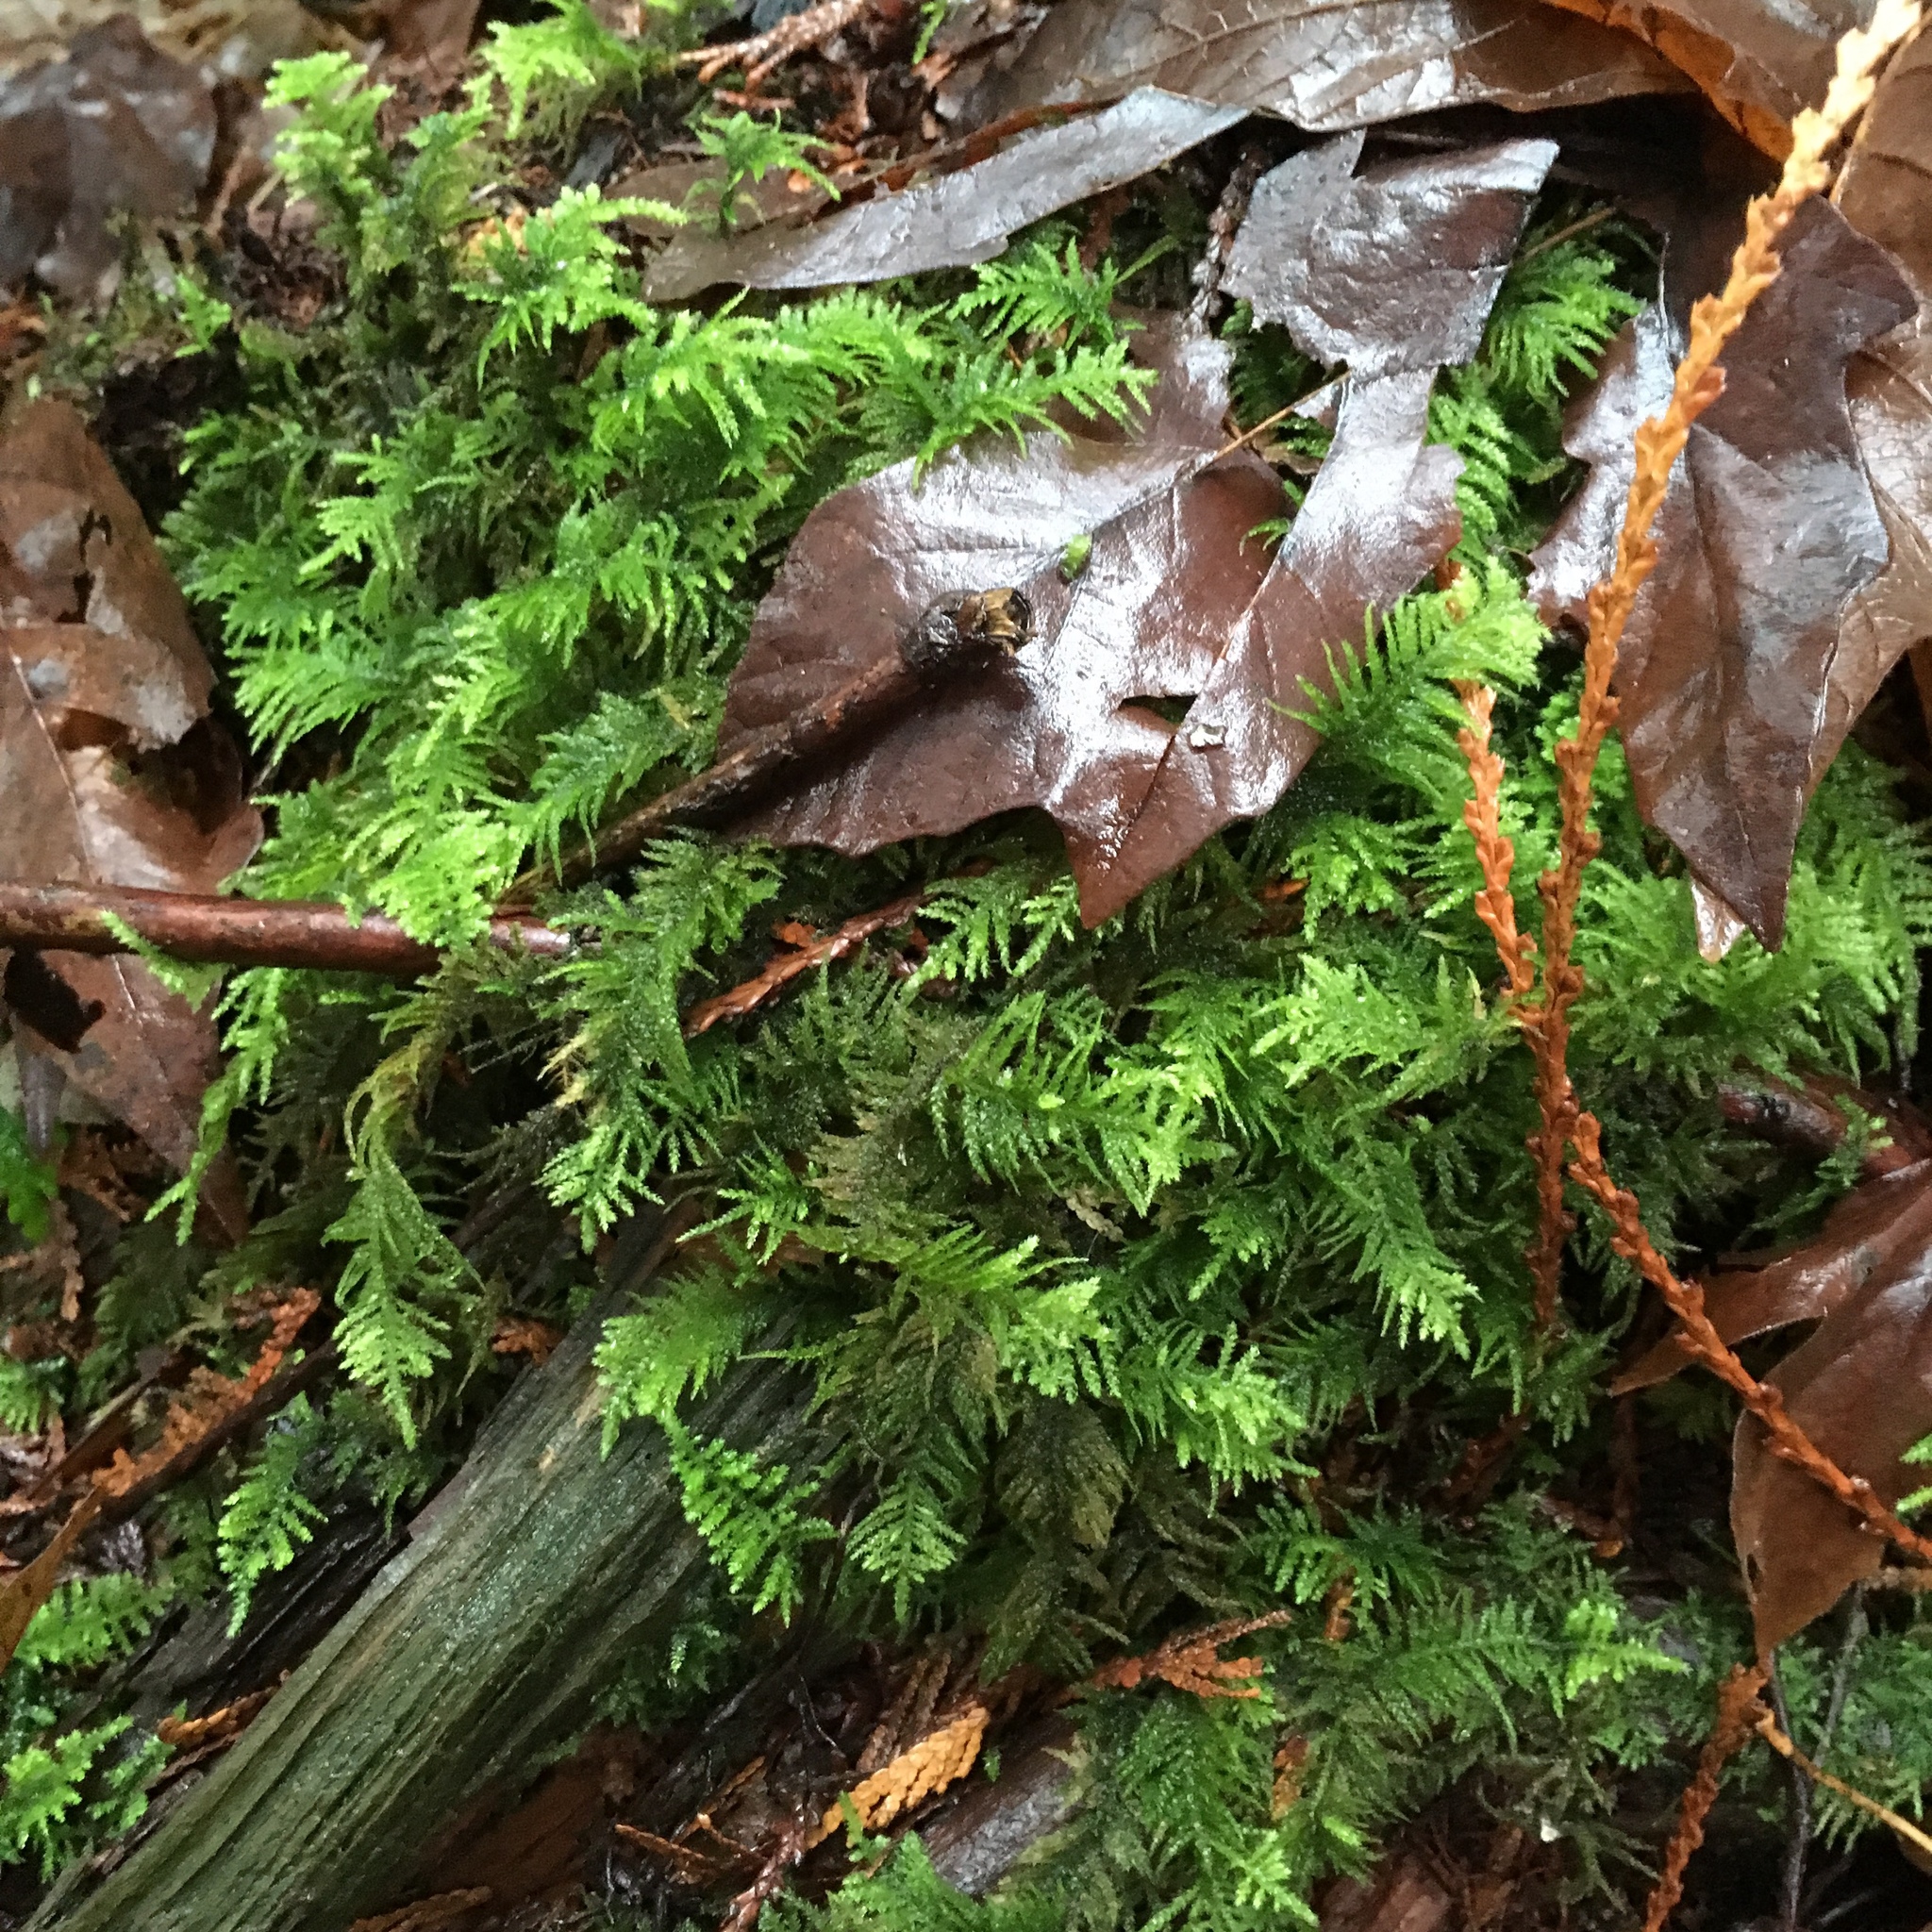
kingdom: Plantae
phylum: Bryophyta
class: Bryopsida
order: Hypnales
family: Brachytheciaceae
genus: Kindbergia
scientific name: Kindbergia oregana
